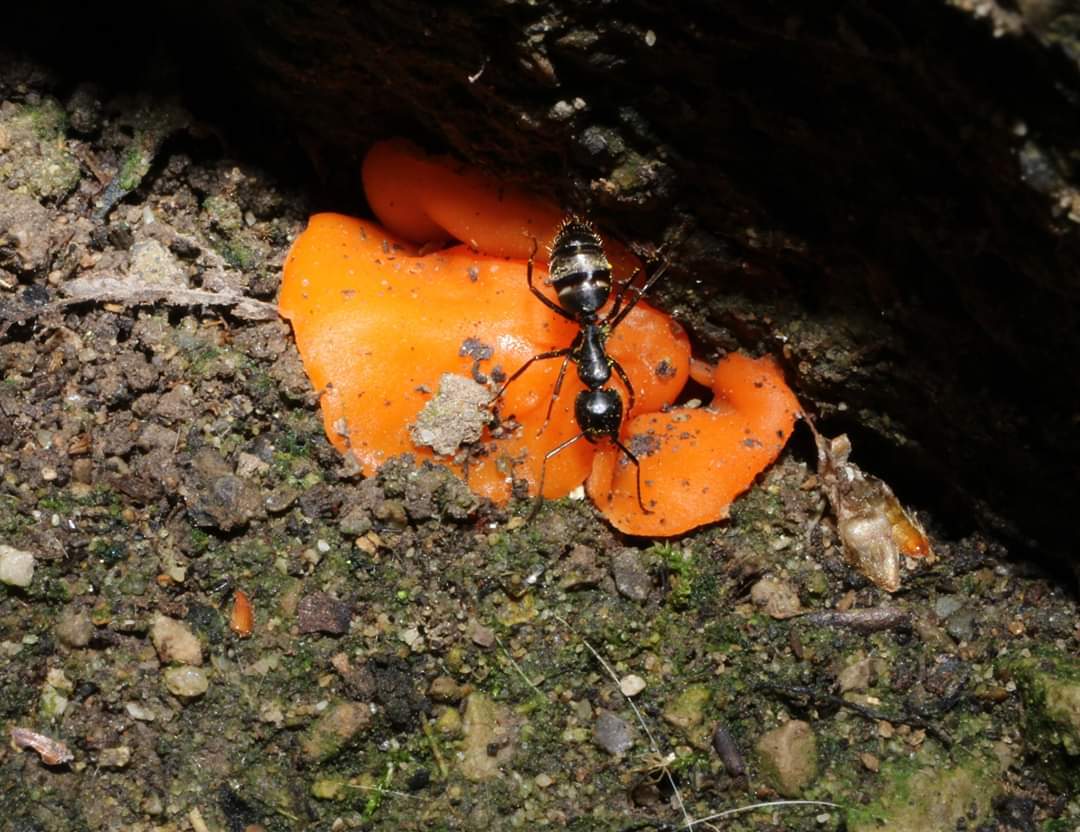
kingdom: Animalia
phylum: Arthropoda
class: Insecta
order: Hymenoptera
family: Formicidae
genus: Camponotus
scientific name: Camponotus pennsylvanicus
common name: Black carpenter ant
